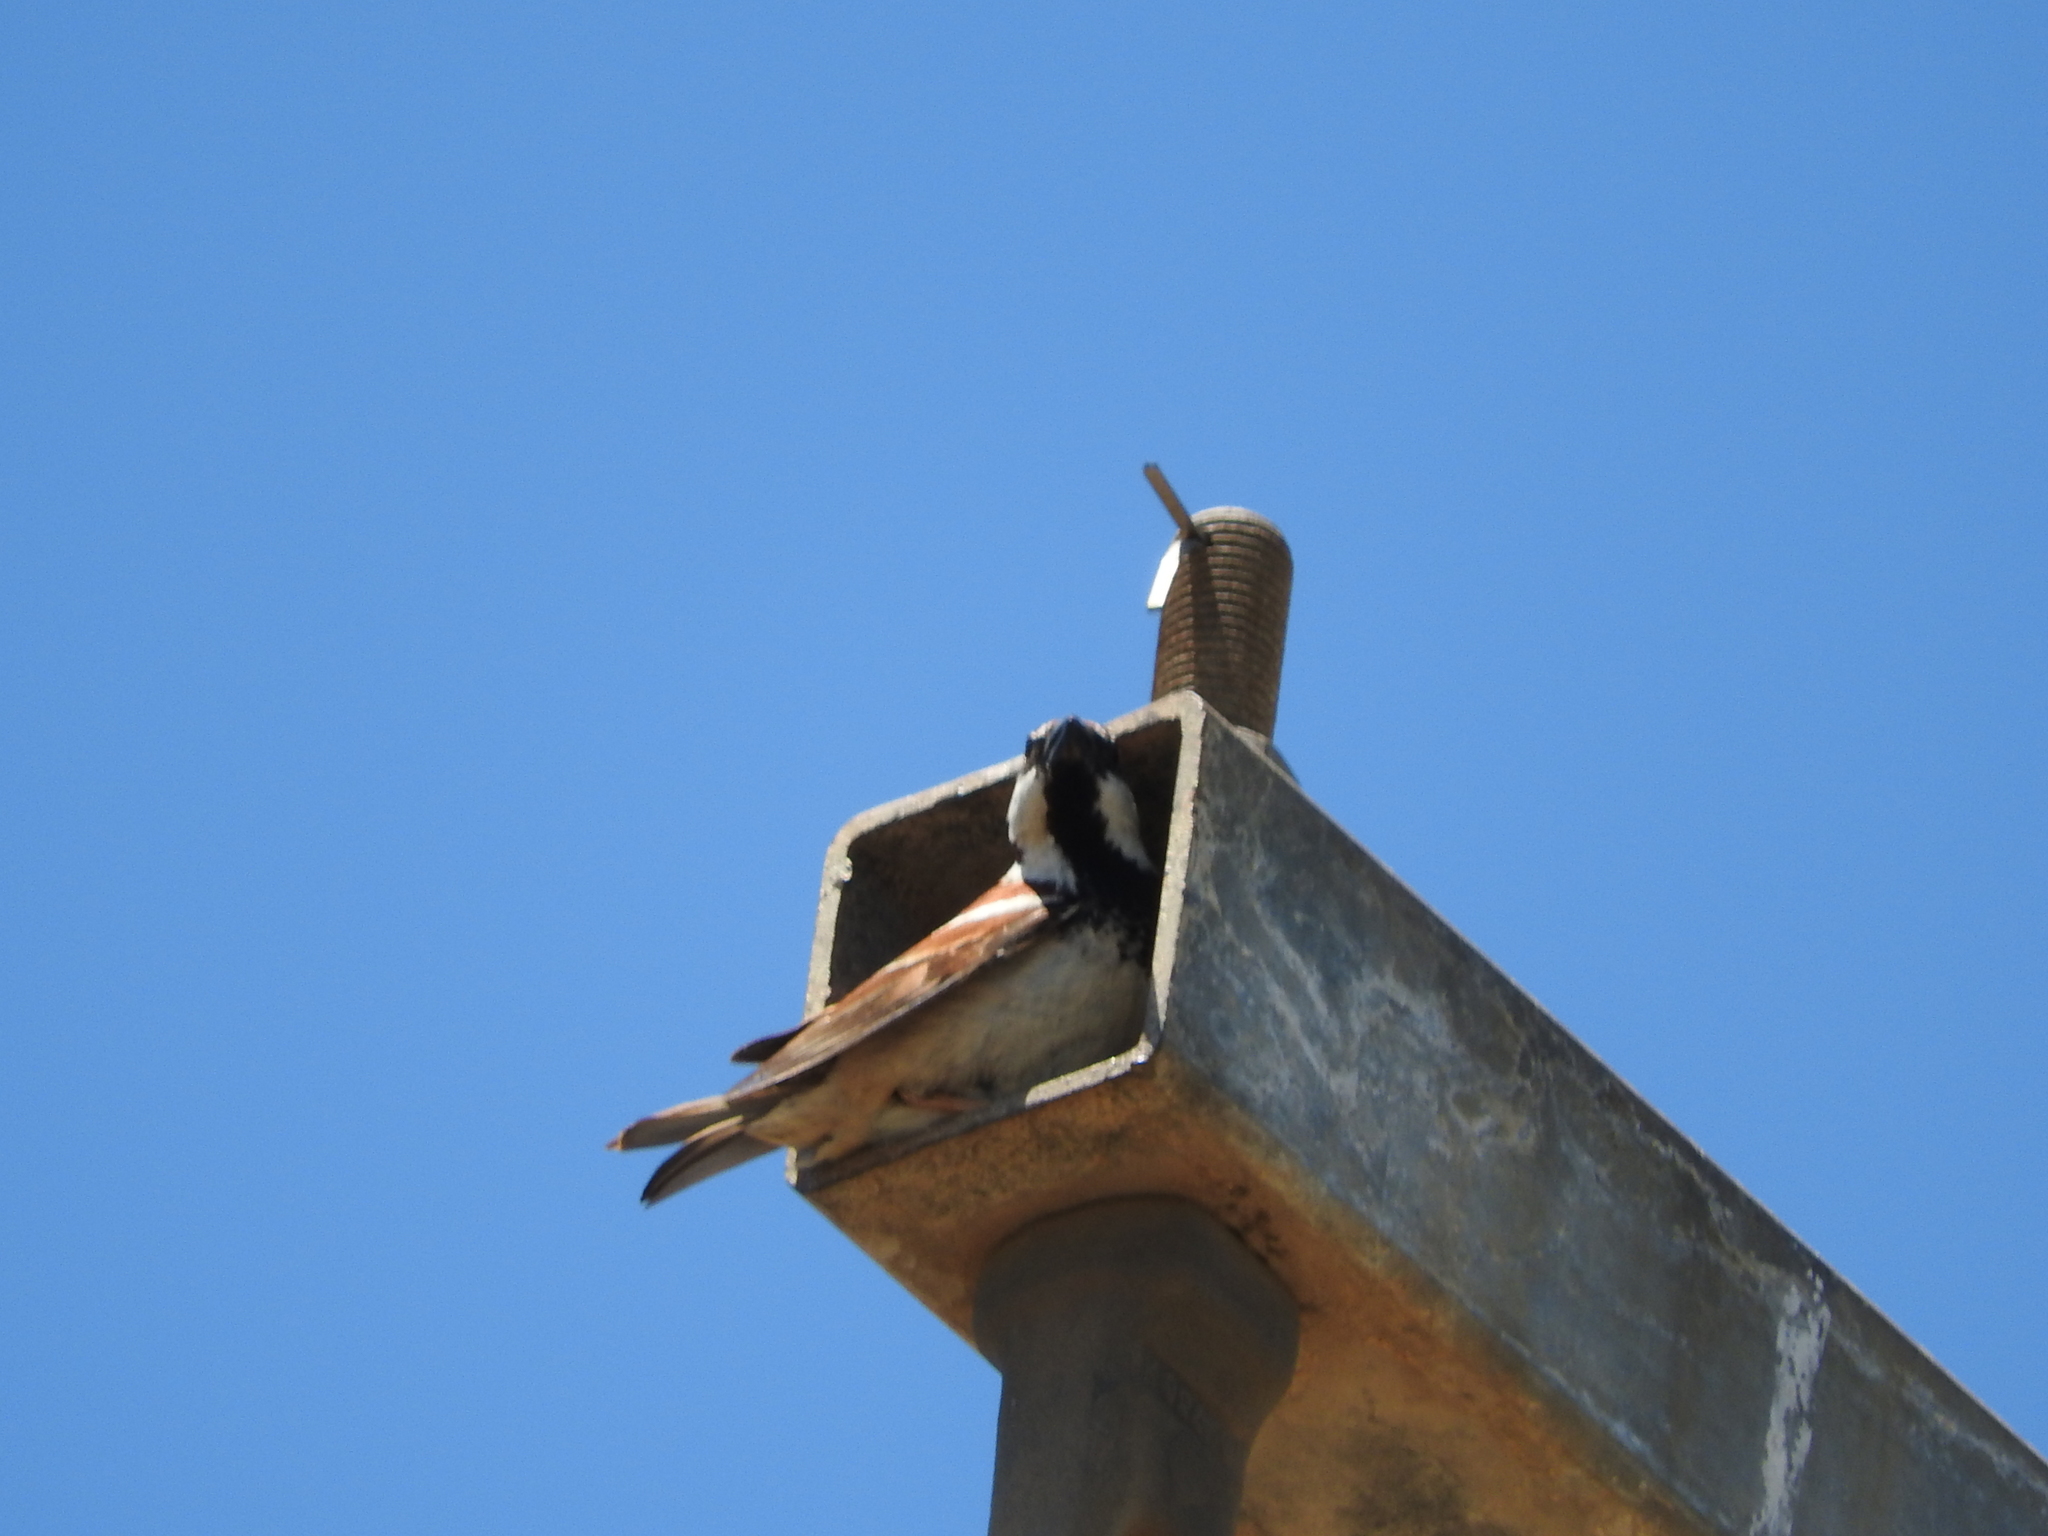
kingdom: Animalia
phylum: Chordata
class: Aves
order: Passeriformes
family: Passeridae
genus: Passer
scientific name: Passer italiae
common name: Italian sparrow
